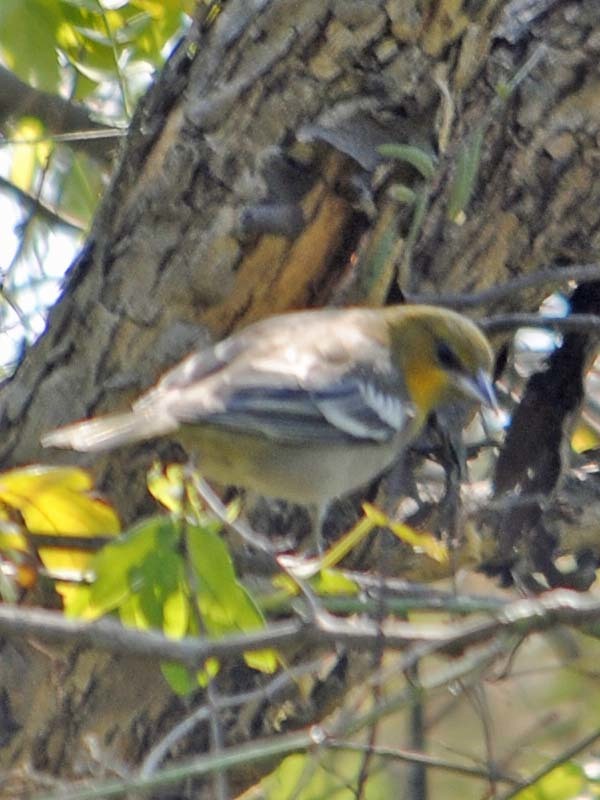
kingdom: Animalia
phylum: Chordata
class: Aves
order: Passeriformes
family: Icteridae
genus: Icterus
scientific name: Icterus bullockii
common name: Bullock's oriole
